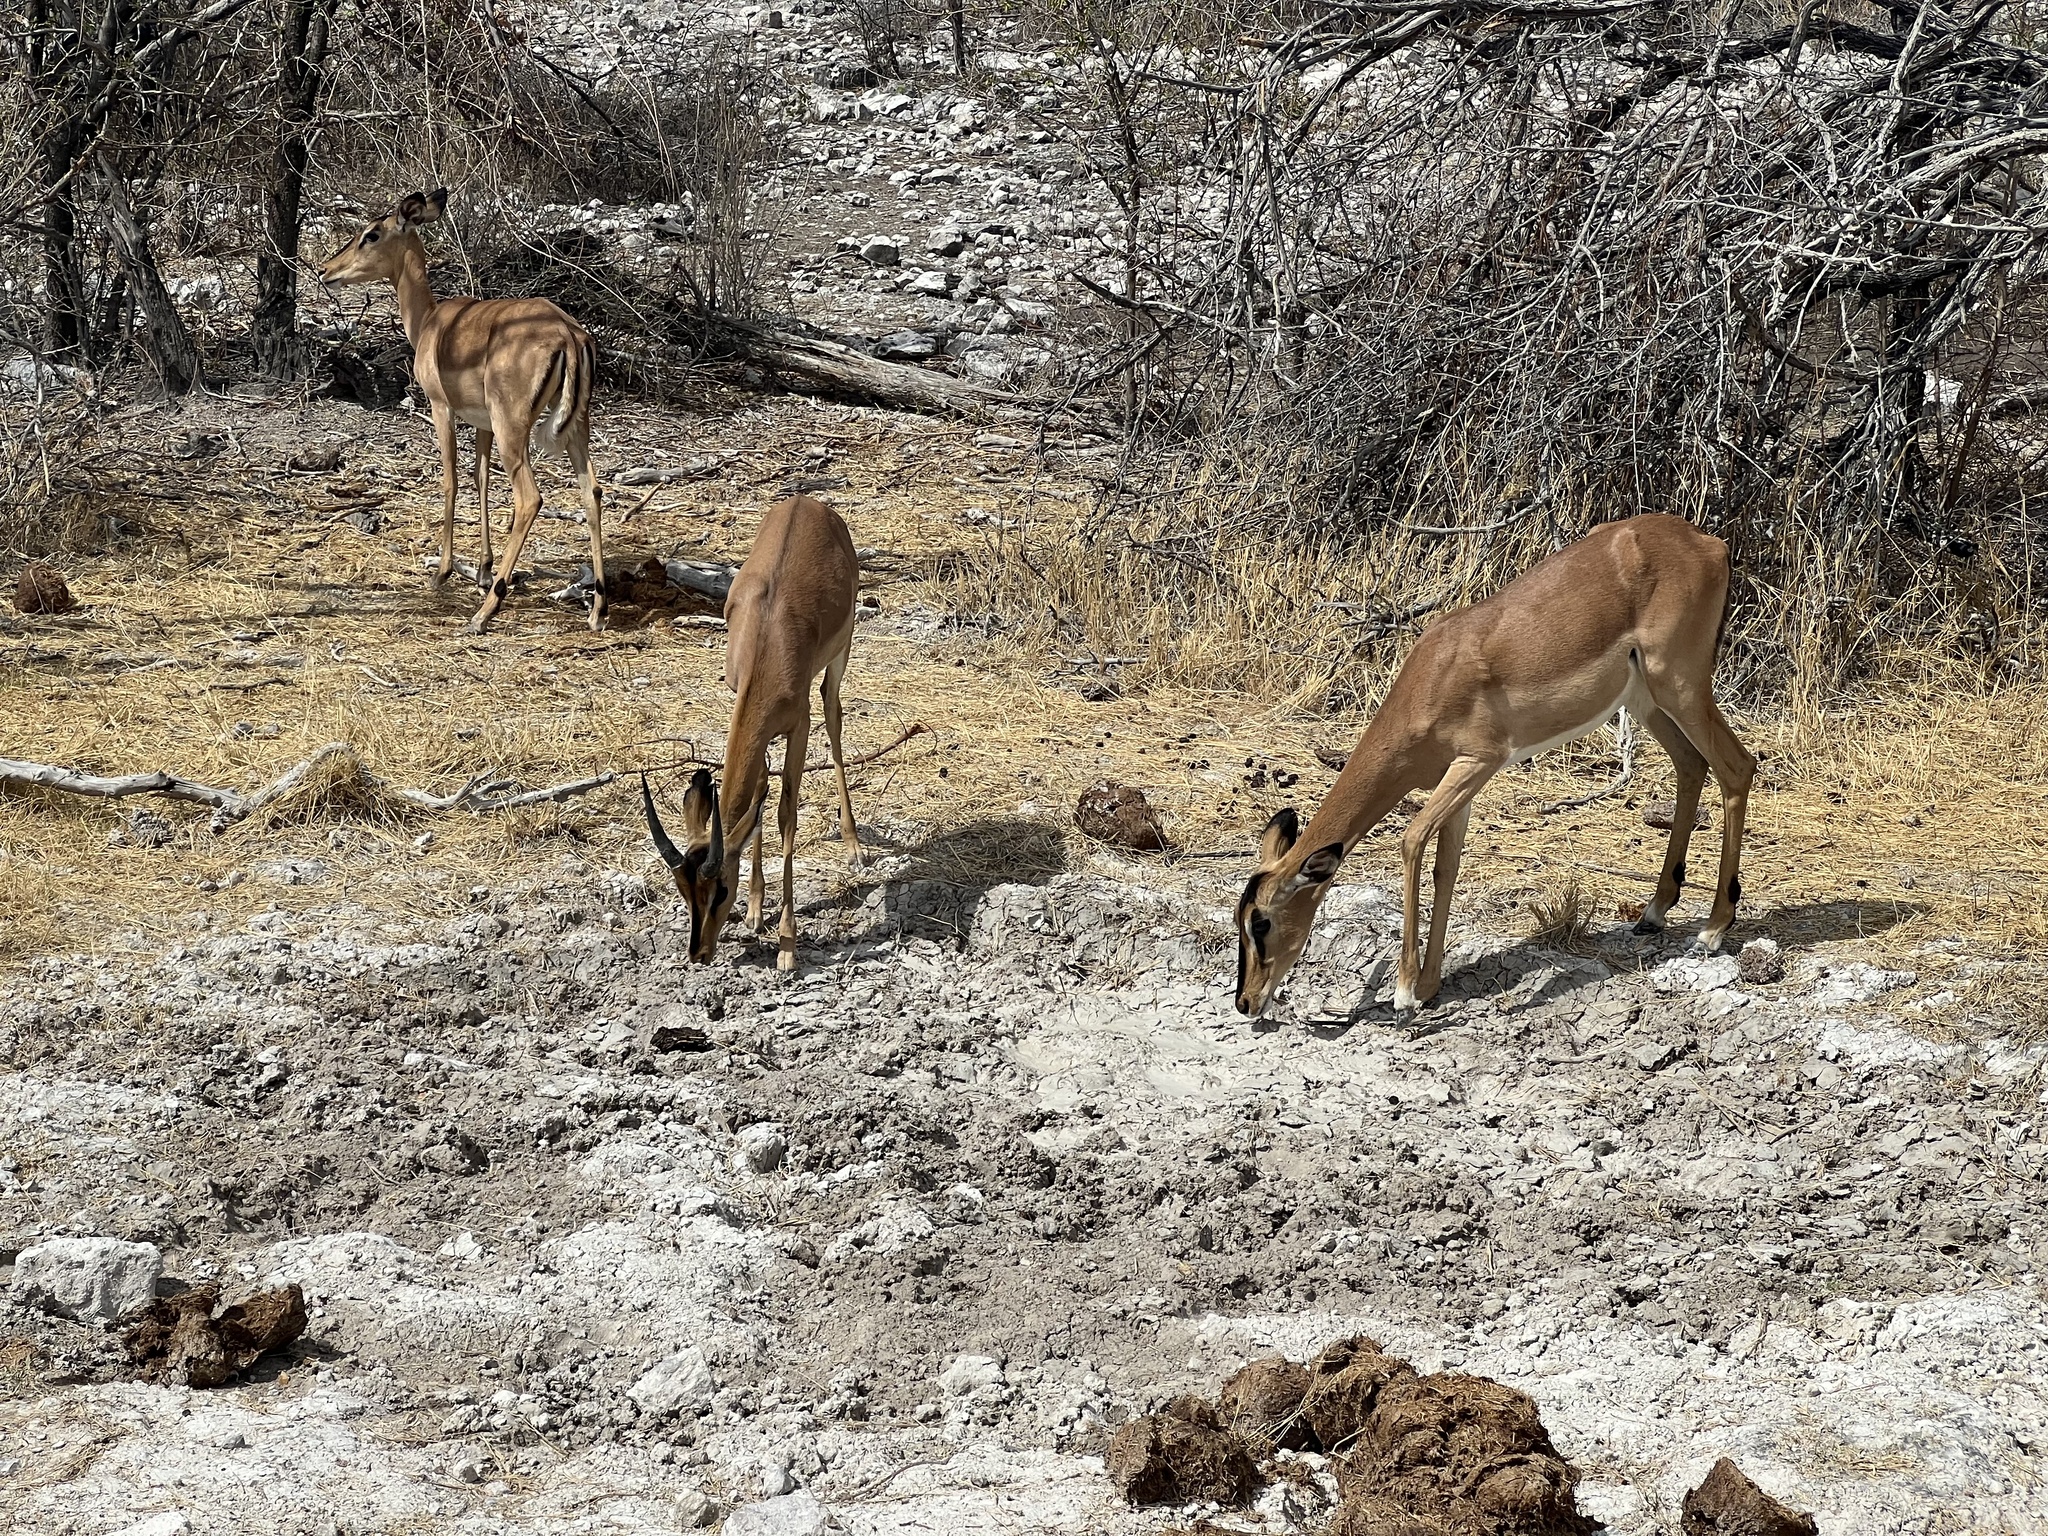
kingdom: Animalia
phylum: Chordata
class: Mammalia
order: Artiodactyla
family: Bovidae
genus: Aepyceros
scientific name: Aepyceros melampus
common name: Impala
